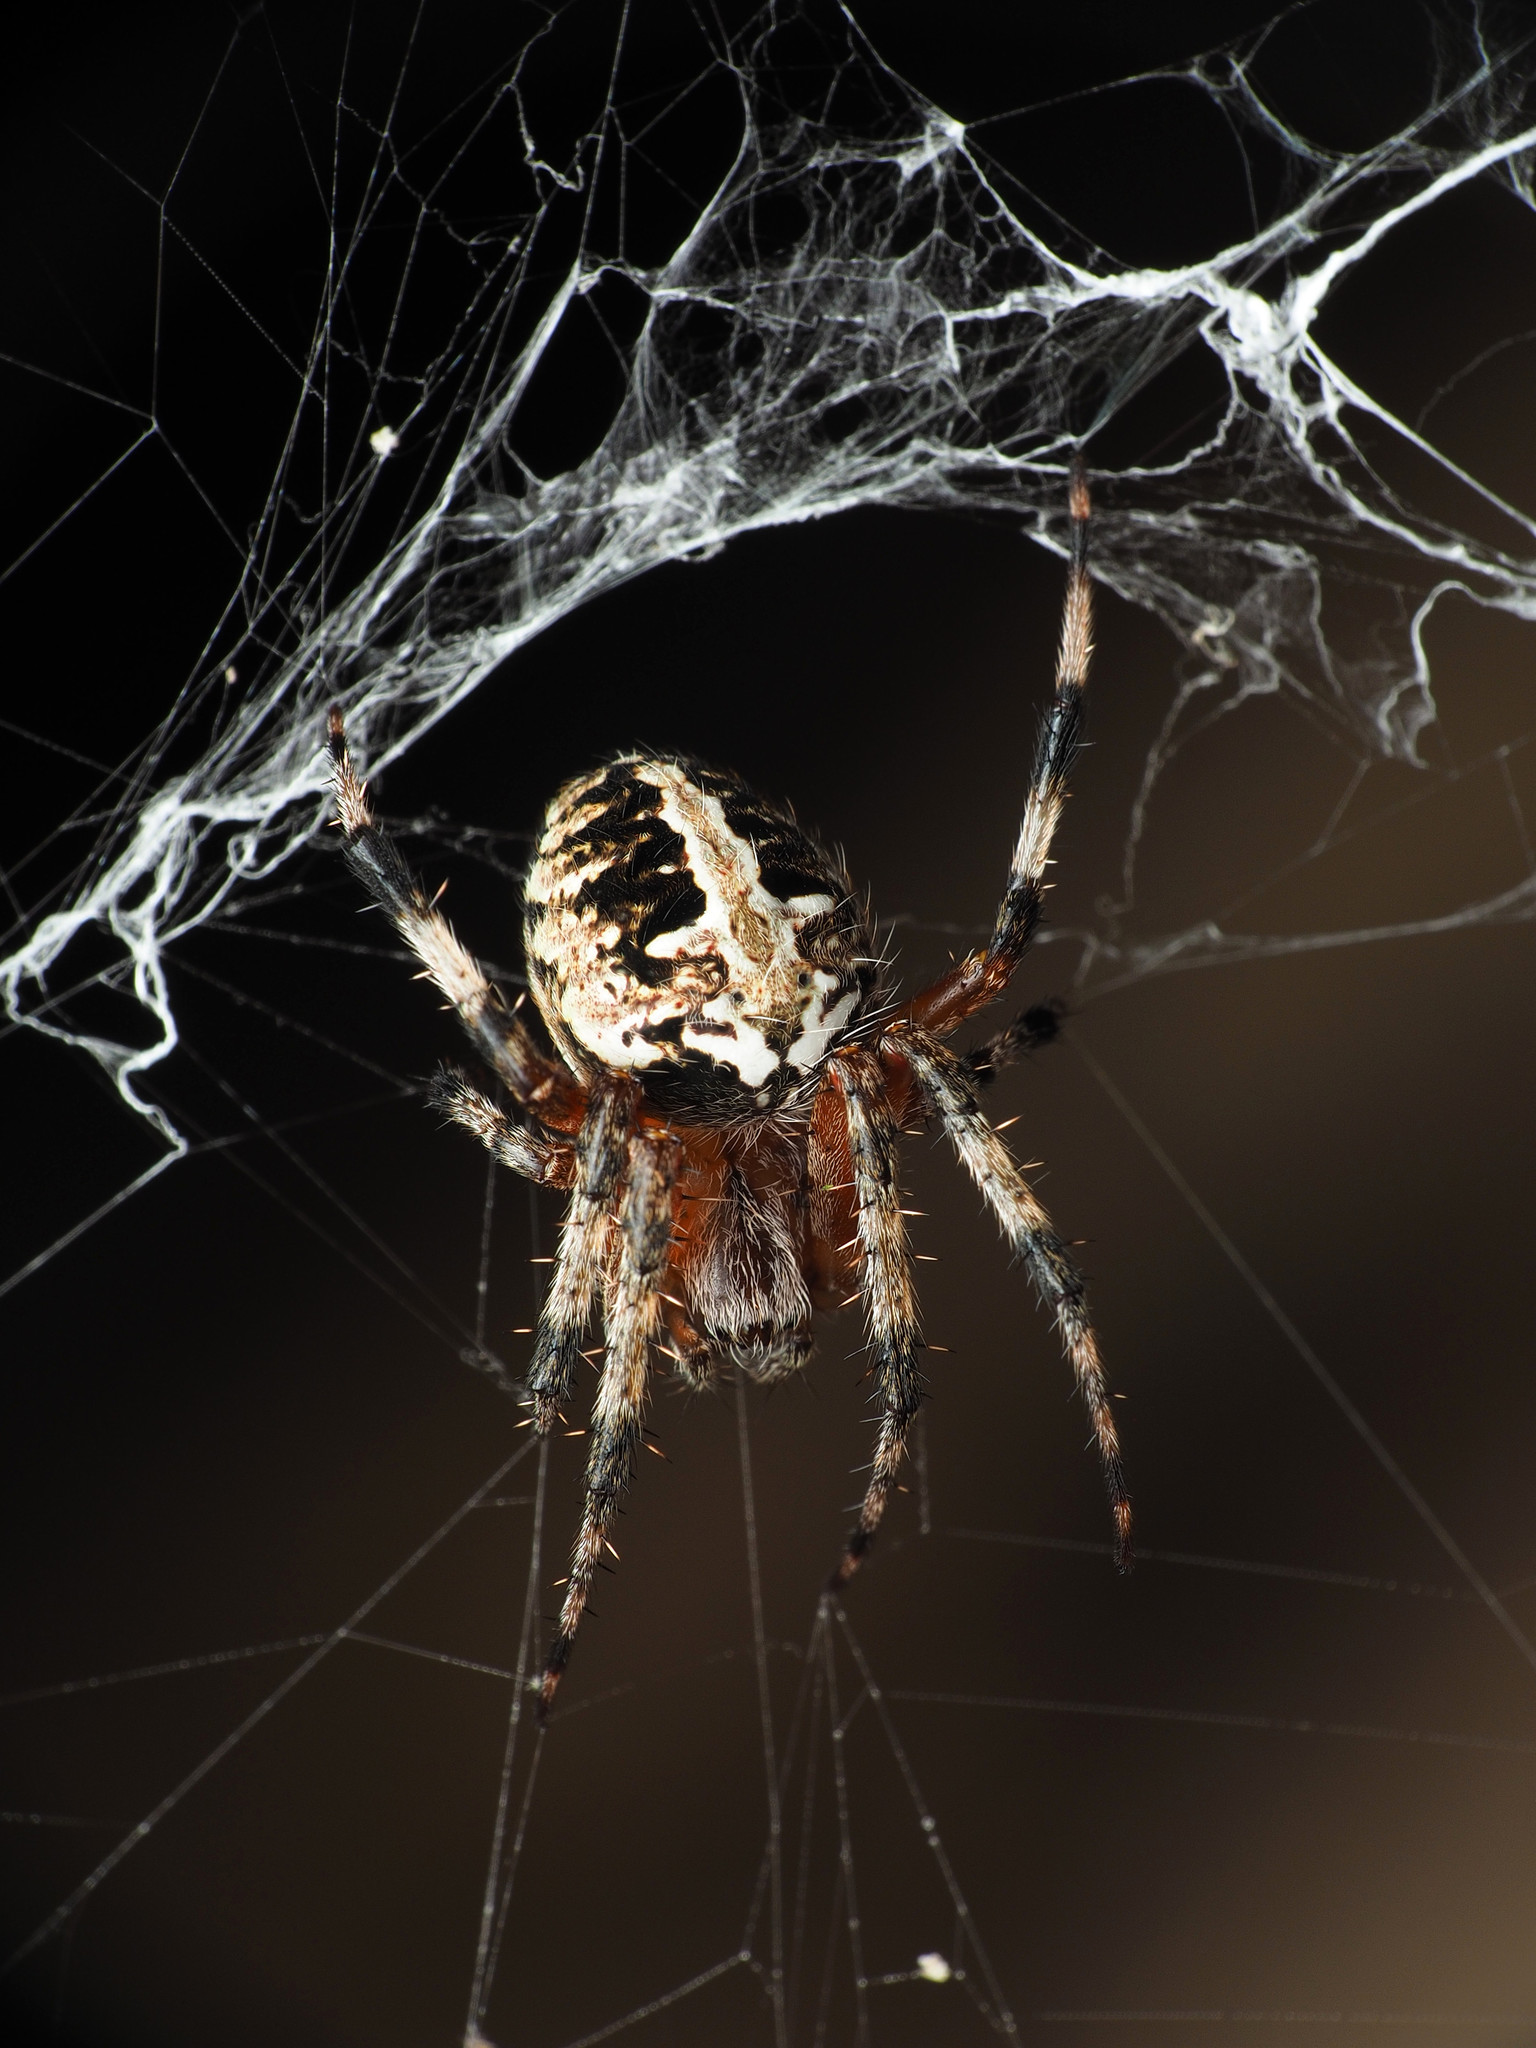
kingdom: Animalia
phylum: Arthropoda
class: Arachnida
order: Araneae
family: Araneidae
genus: Neoscona
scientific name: Neoscona domiciliorum
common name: Red-femured spotted orbweaver
